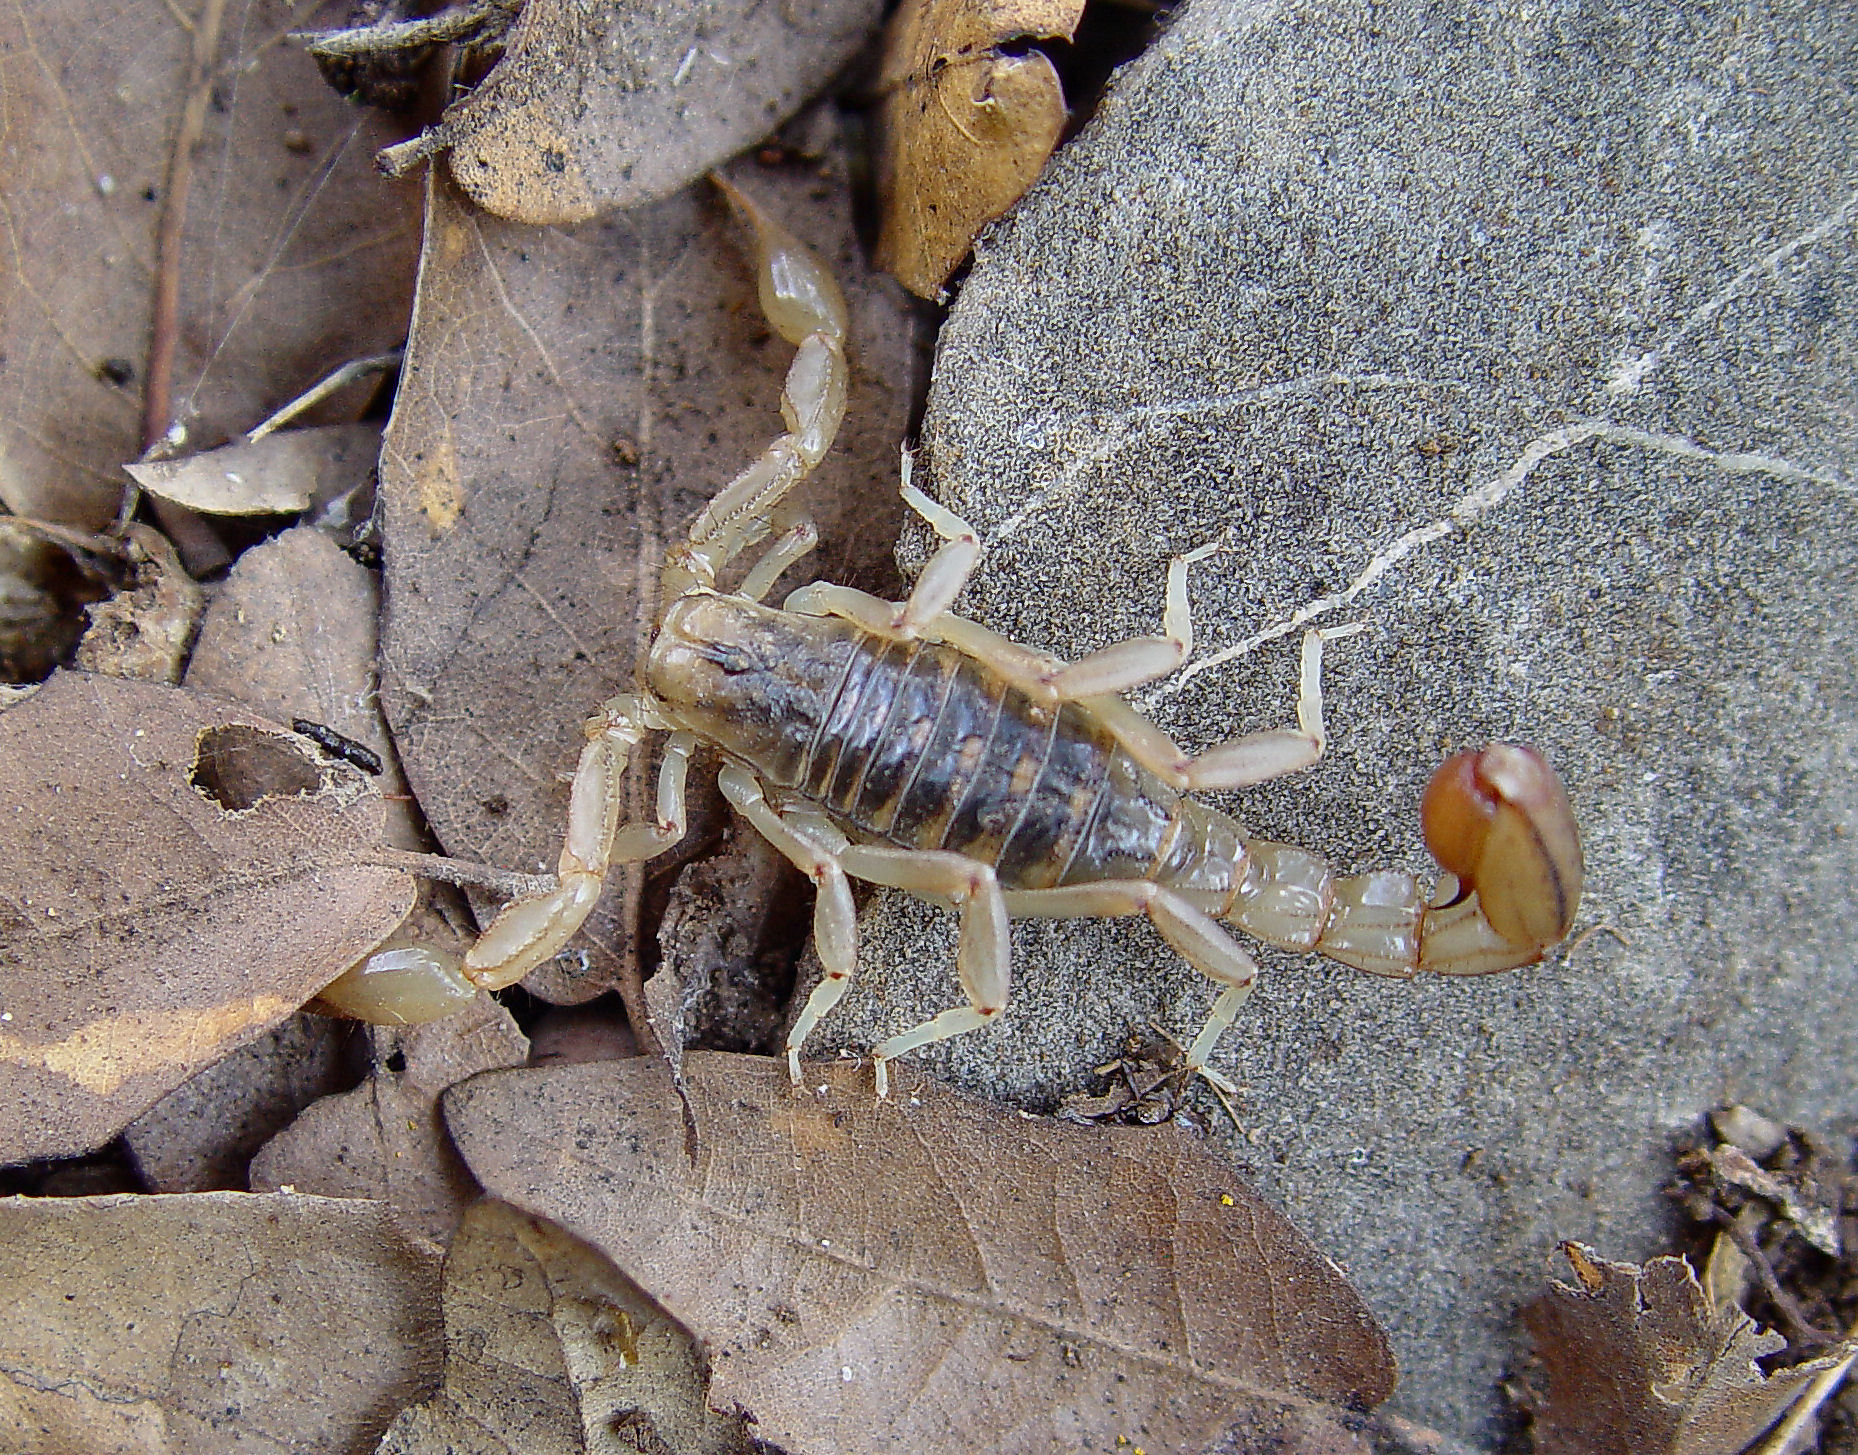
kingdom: Animalia
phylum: Arthropoda
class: Arachnida
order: Scorpiones
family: Vaejovidae
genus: Paravaejovis
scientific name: Paravaejovis spinigerus
